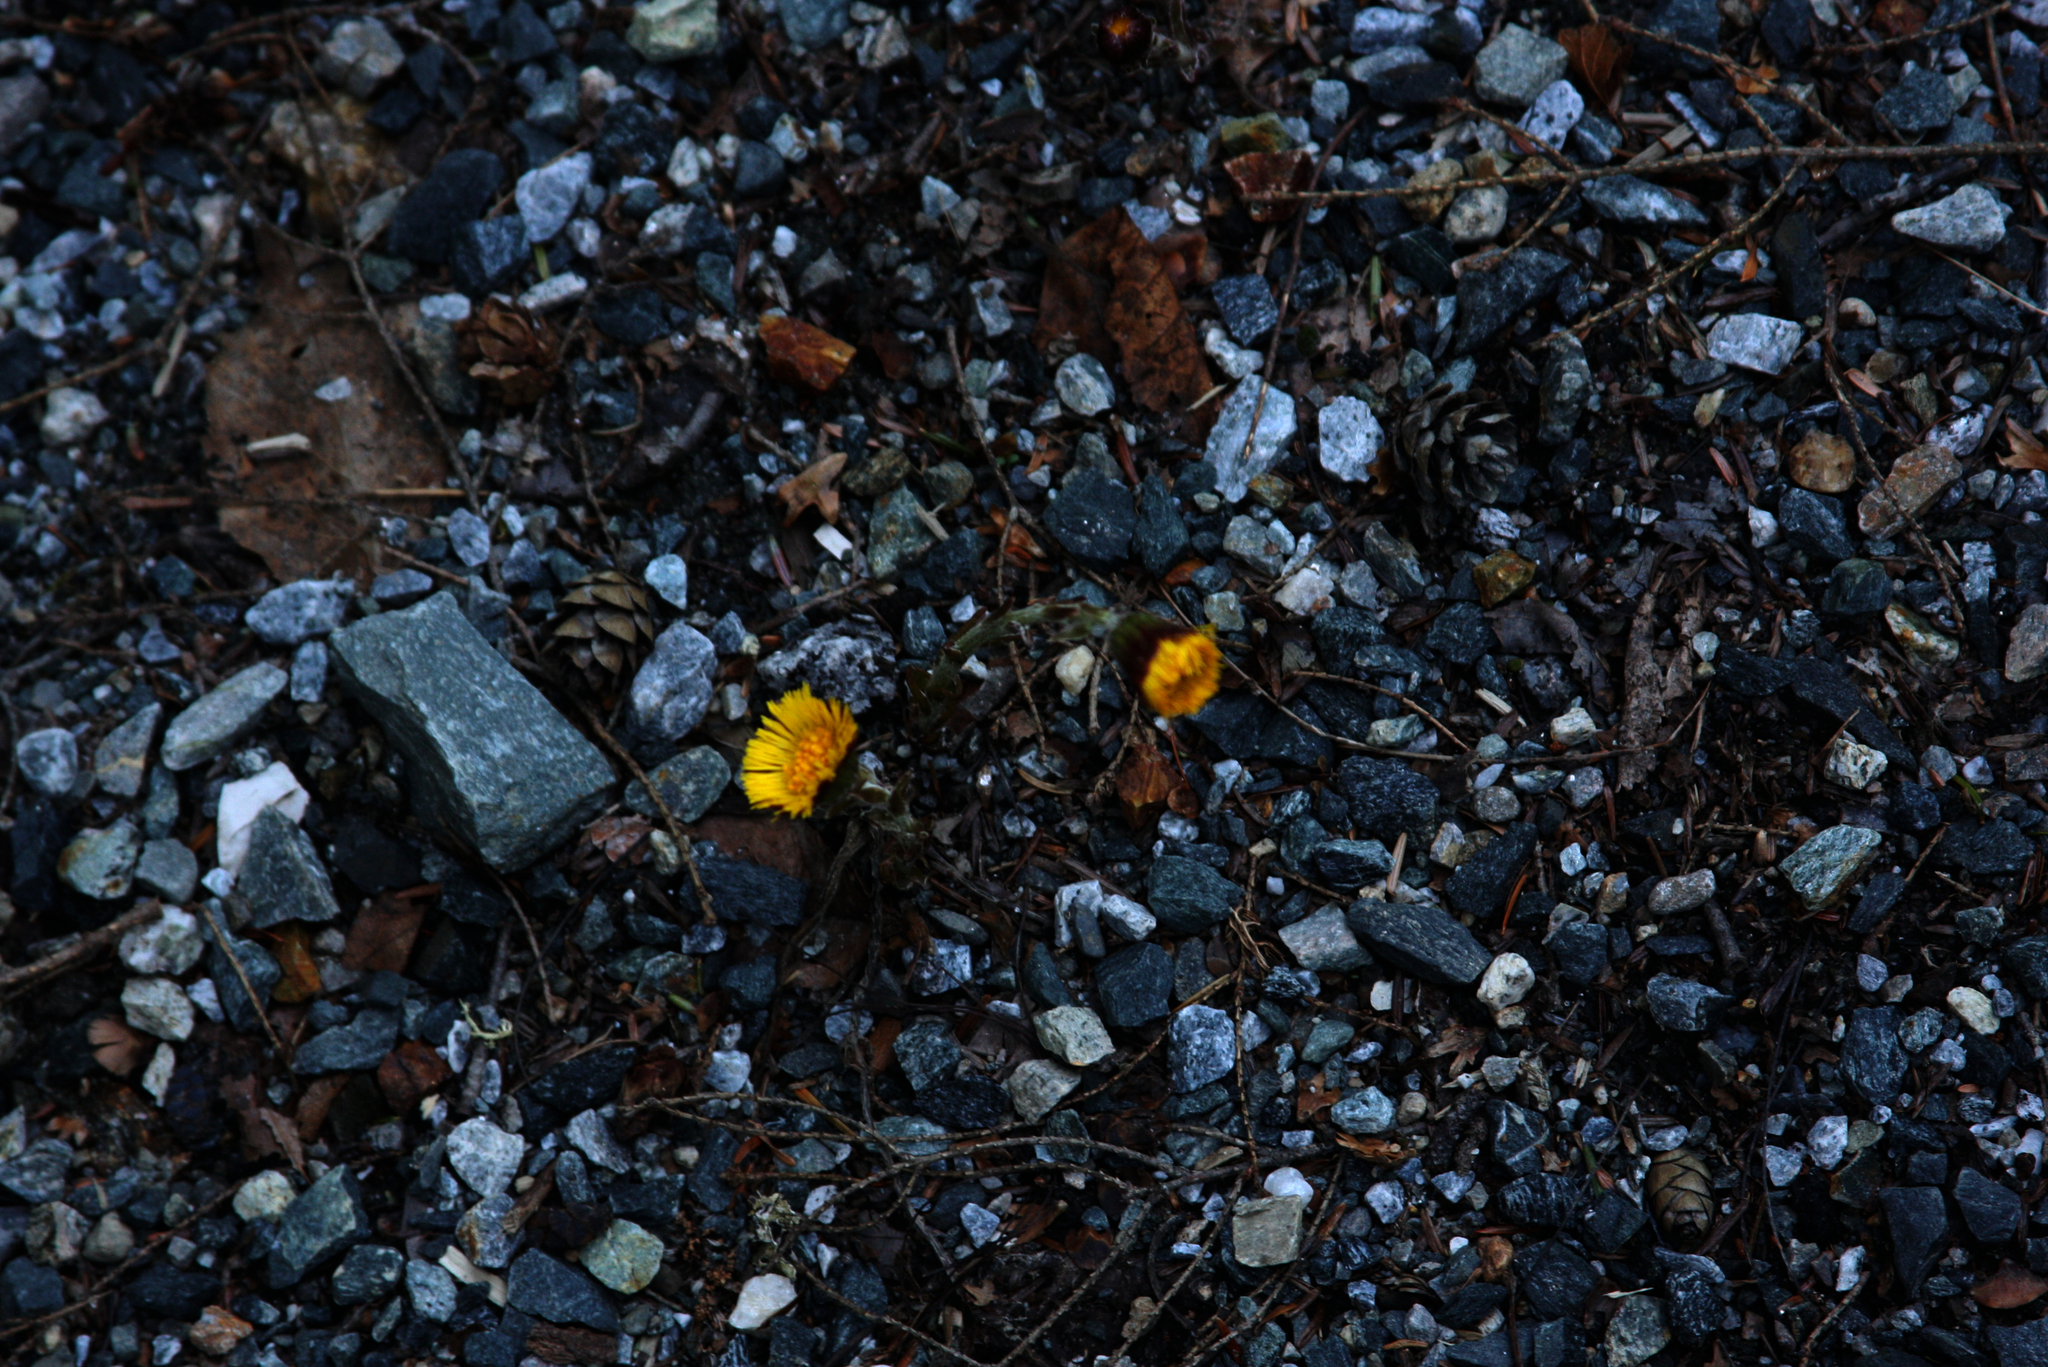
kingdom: Plantae
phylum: Tracheophyta
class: Magnoliopsida
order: Asterales
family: Asteraceae
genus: Tussilago
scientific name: Tussilago farfara
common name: Coltsfoot
